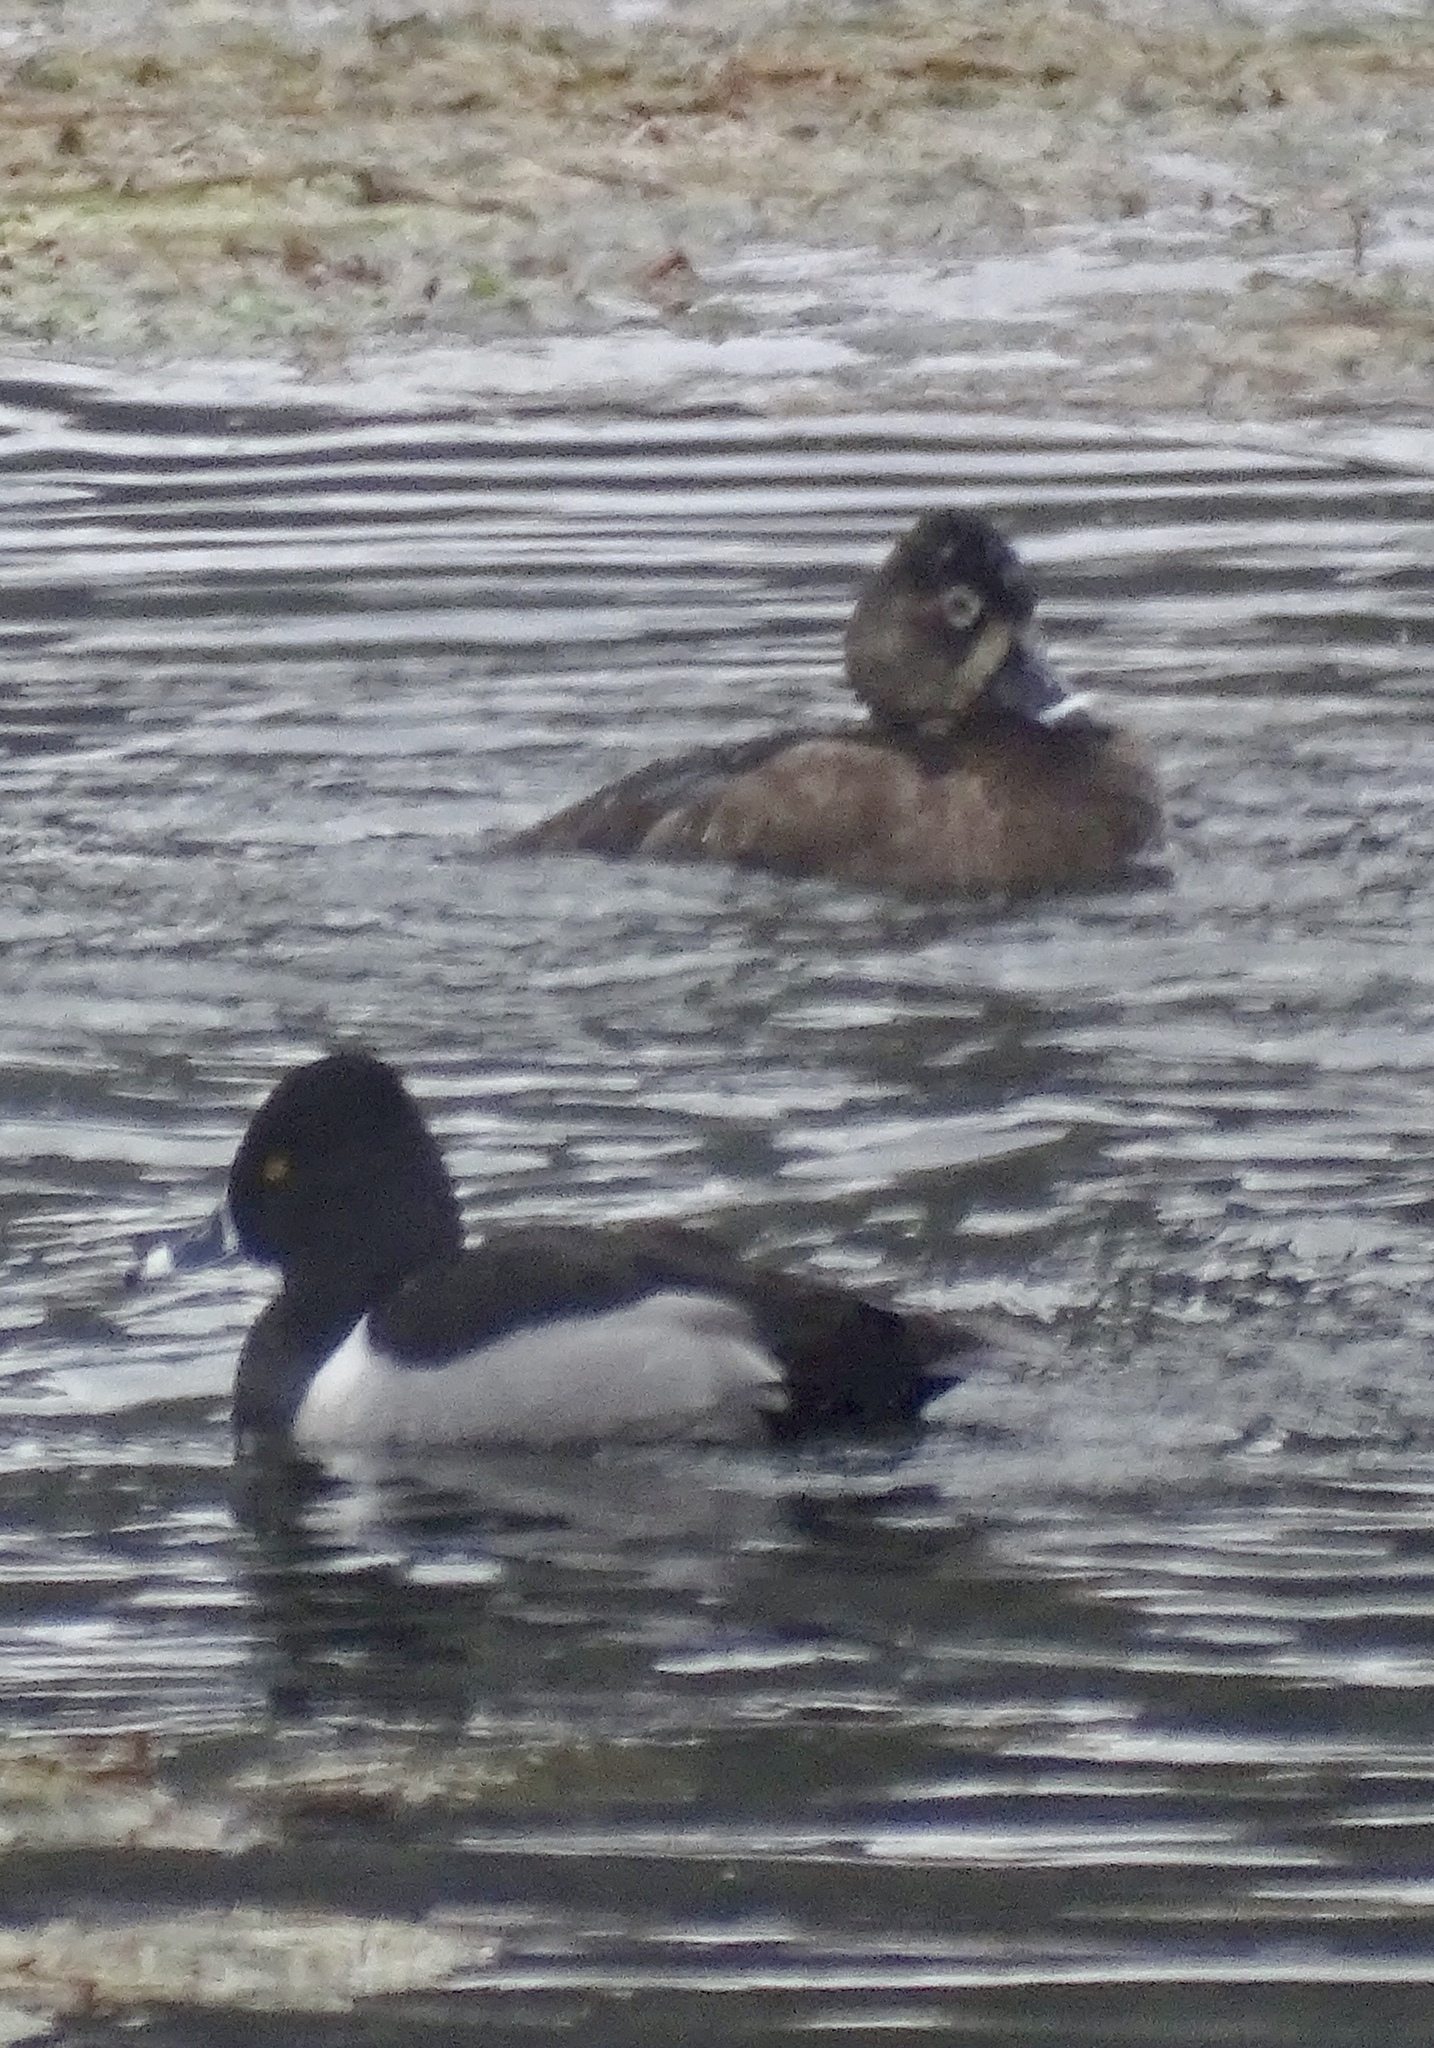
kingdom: Animalia
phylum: Chordata
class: Aves
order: Anseriformes
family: Anatidae
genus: Aythya
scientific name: Aythya collaris
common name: Ring-necked duck
